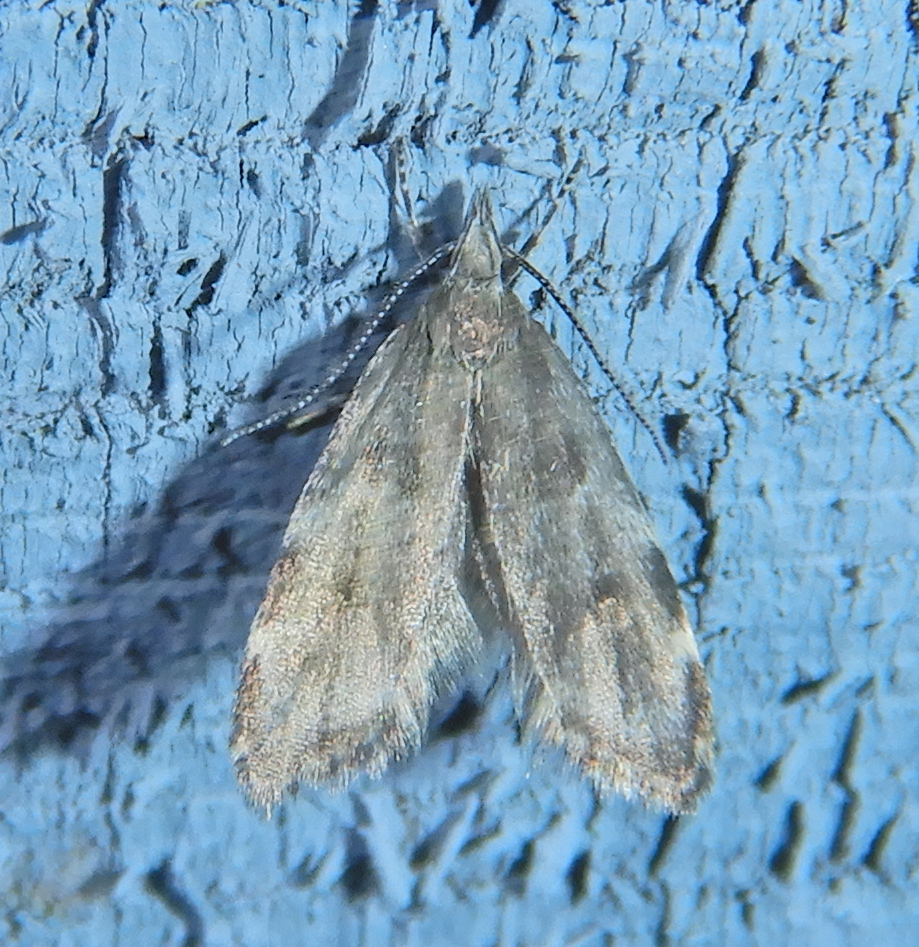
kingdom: Animalia
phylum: Arthropoda
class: Insecta
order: Lepidoptera
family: Oecophoridae
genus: Eido
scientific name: Eido trimaculella
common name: Three-spotted concealer
